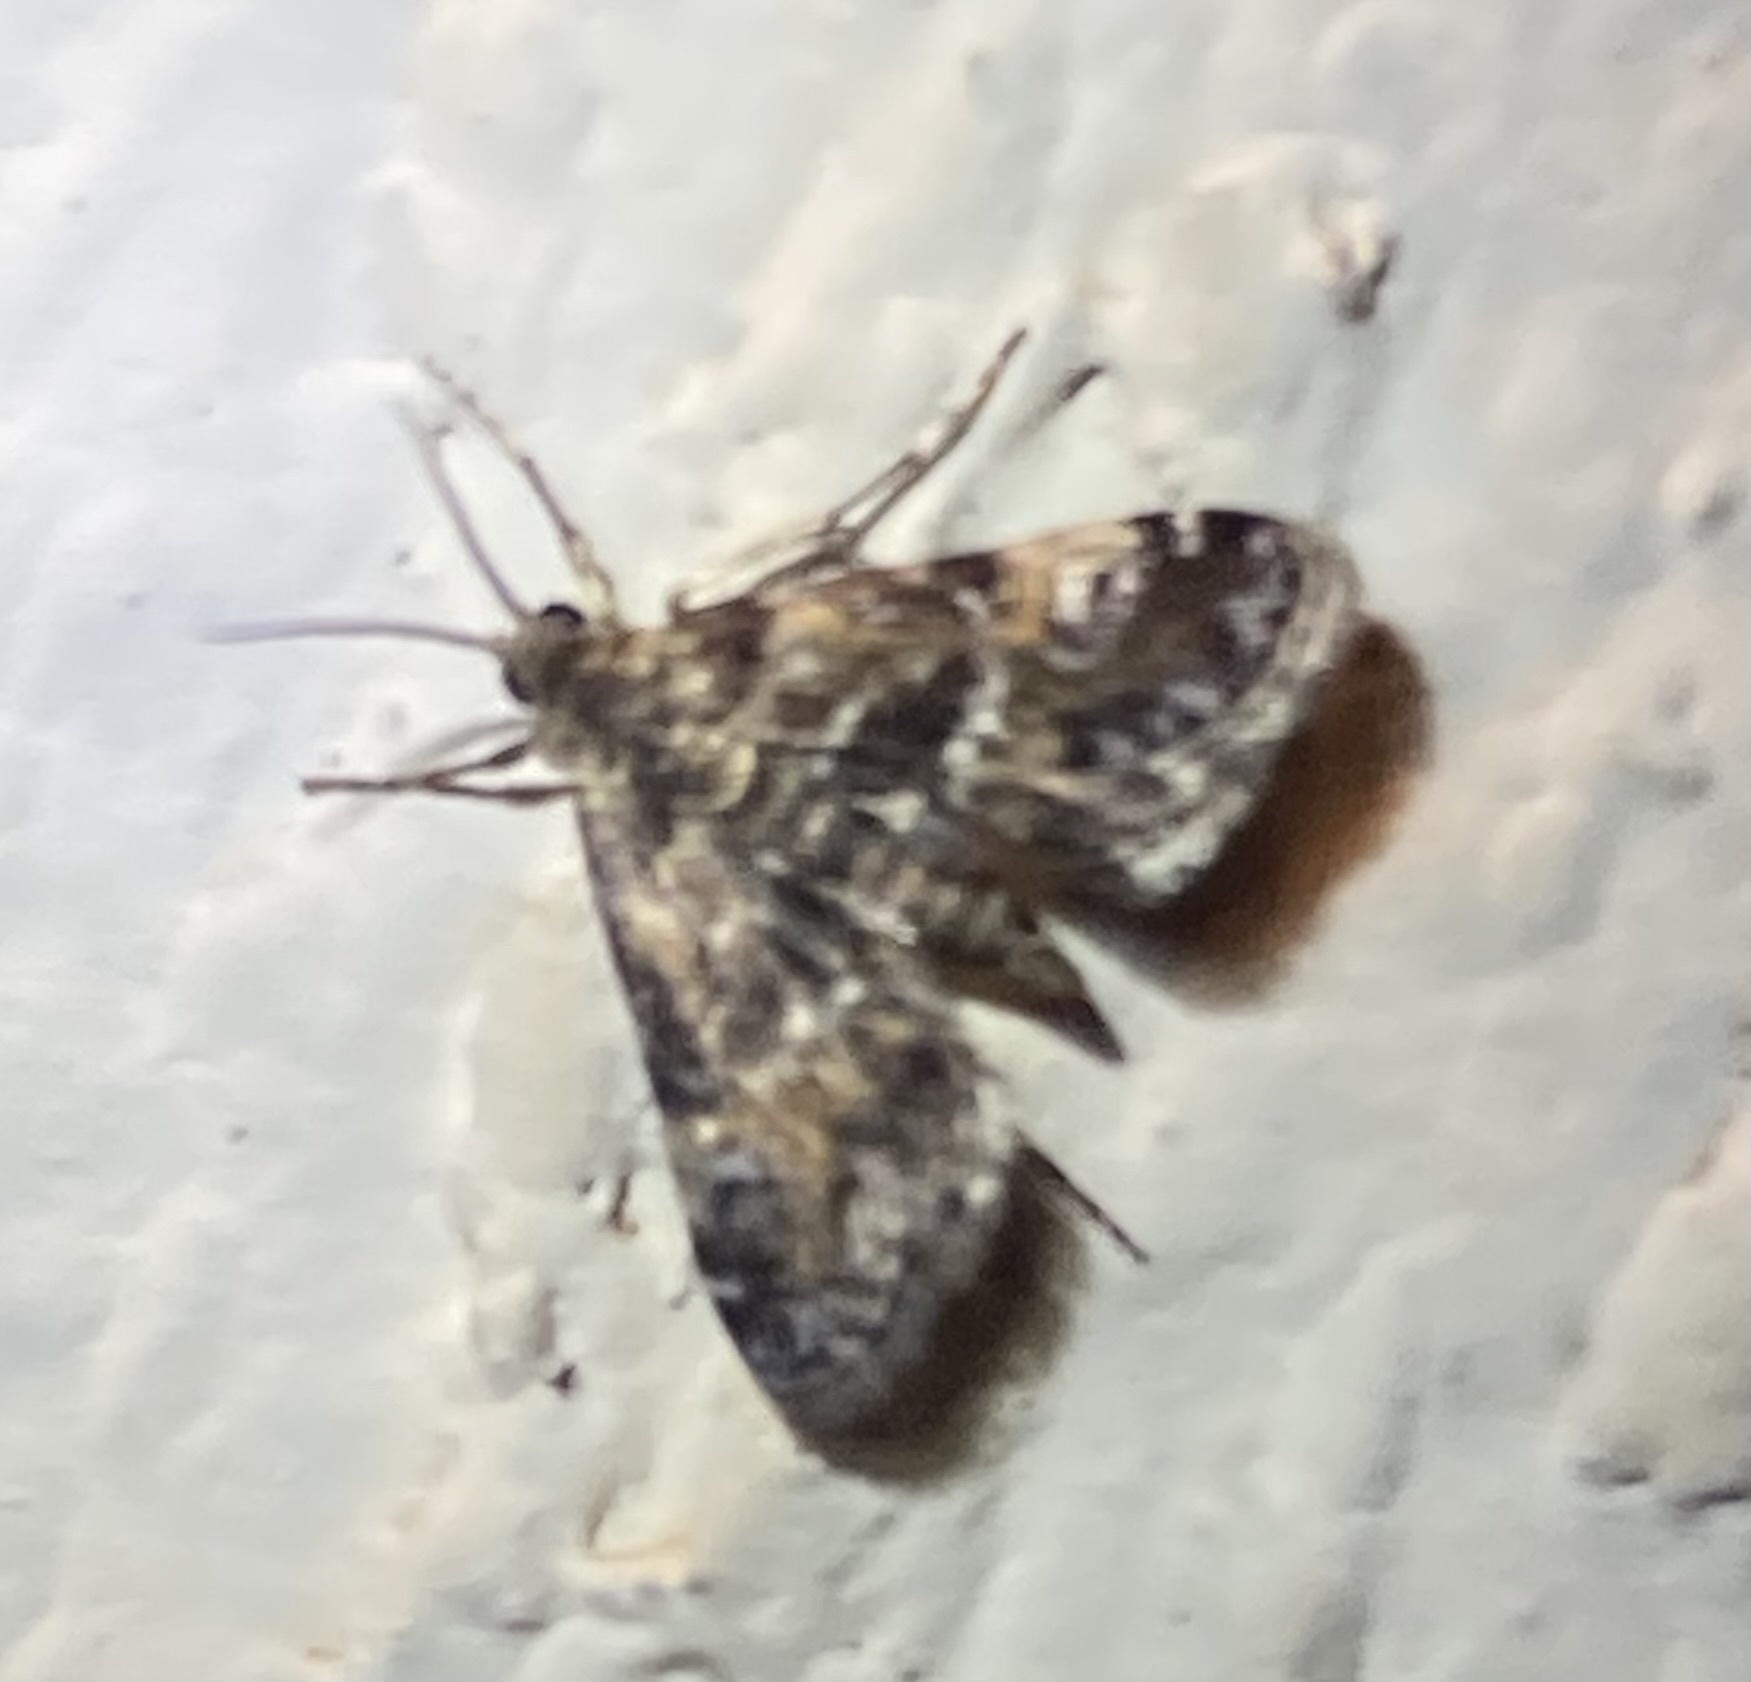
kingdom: Animalia
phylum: Arthropoda
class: Insecta
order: Lepidoptera
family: Crambidae
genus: Elophila
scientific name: Elophila obliteralis
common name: Waterlily leafcutter moth
